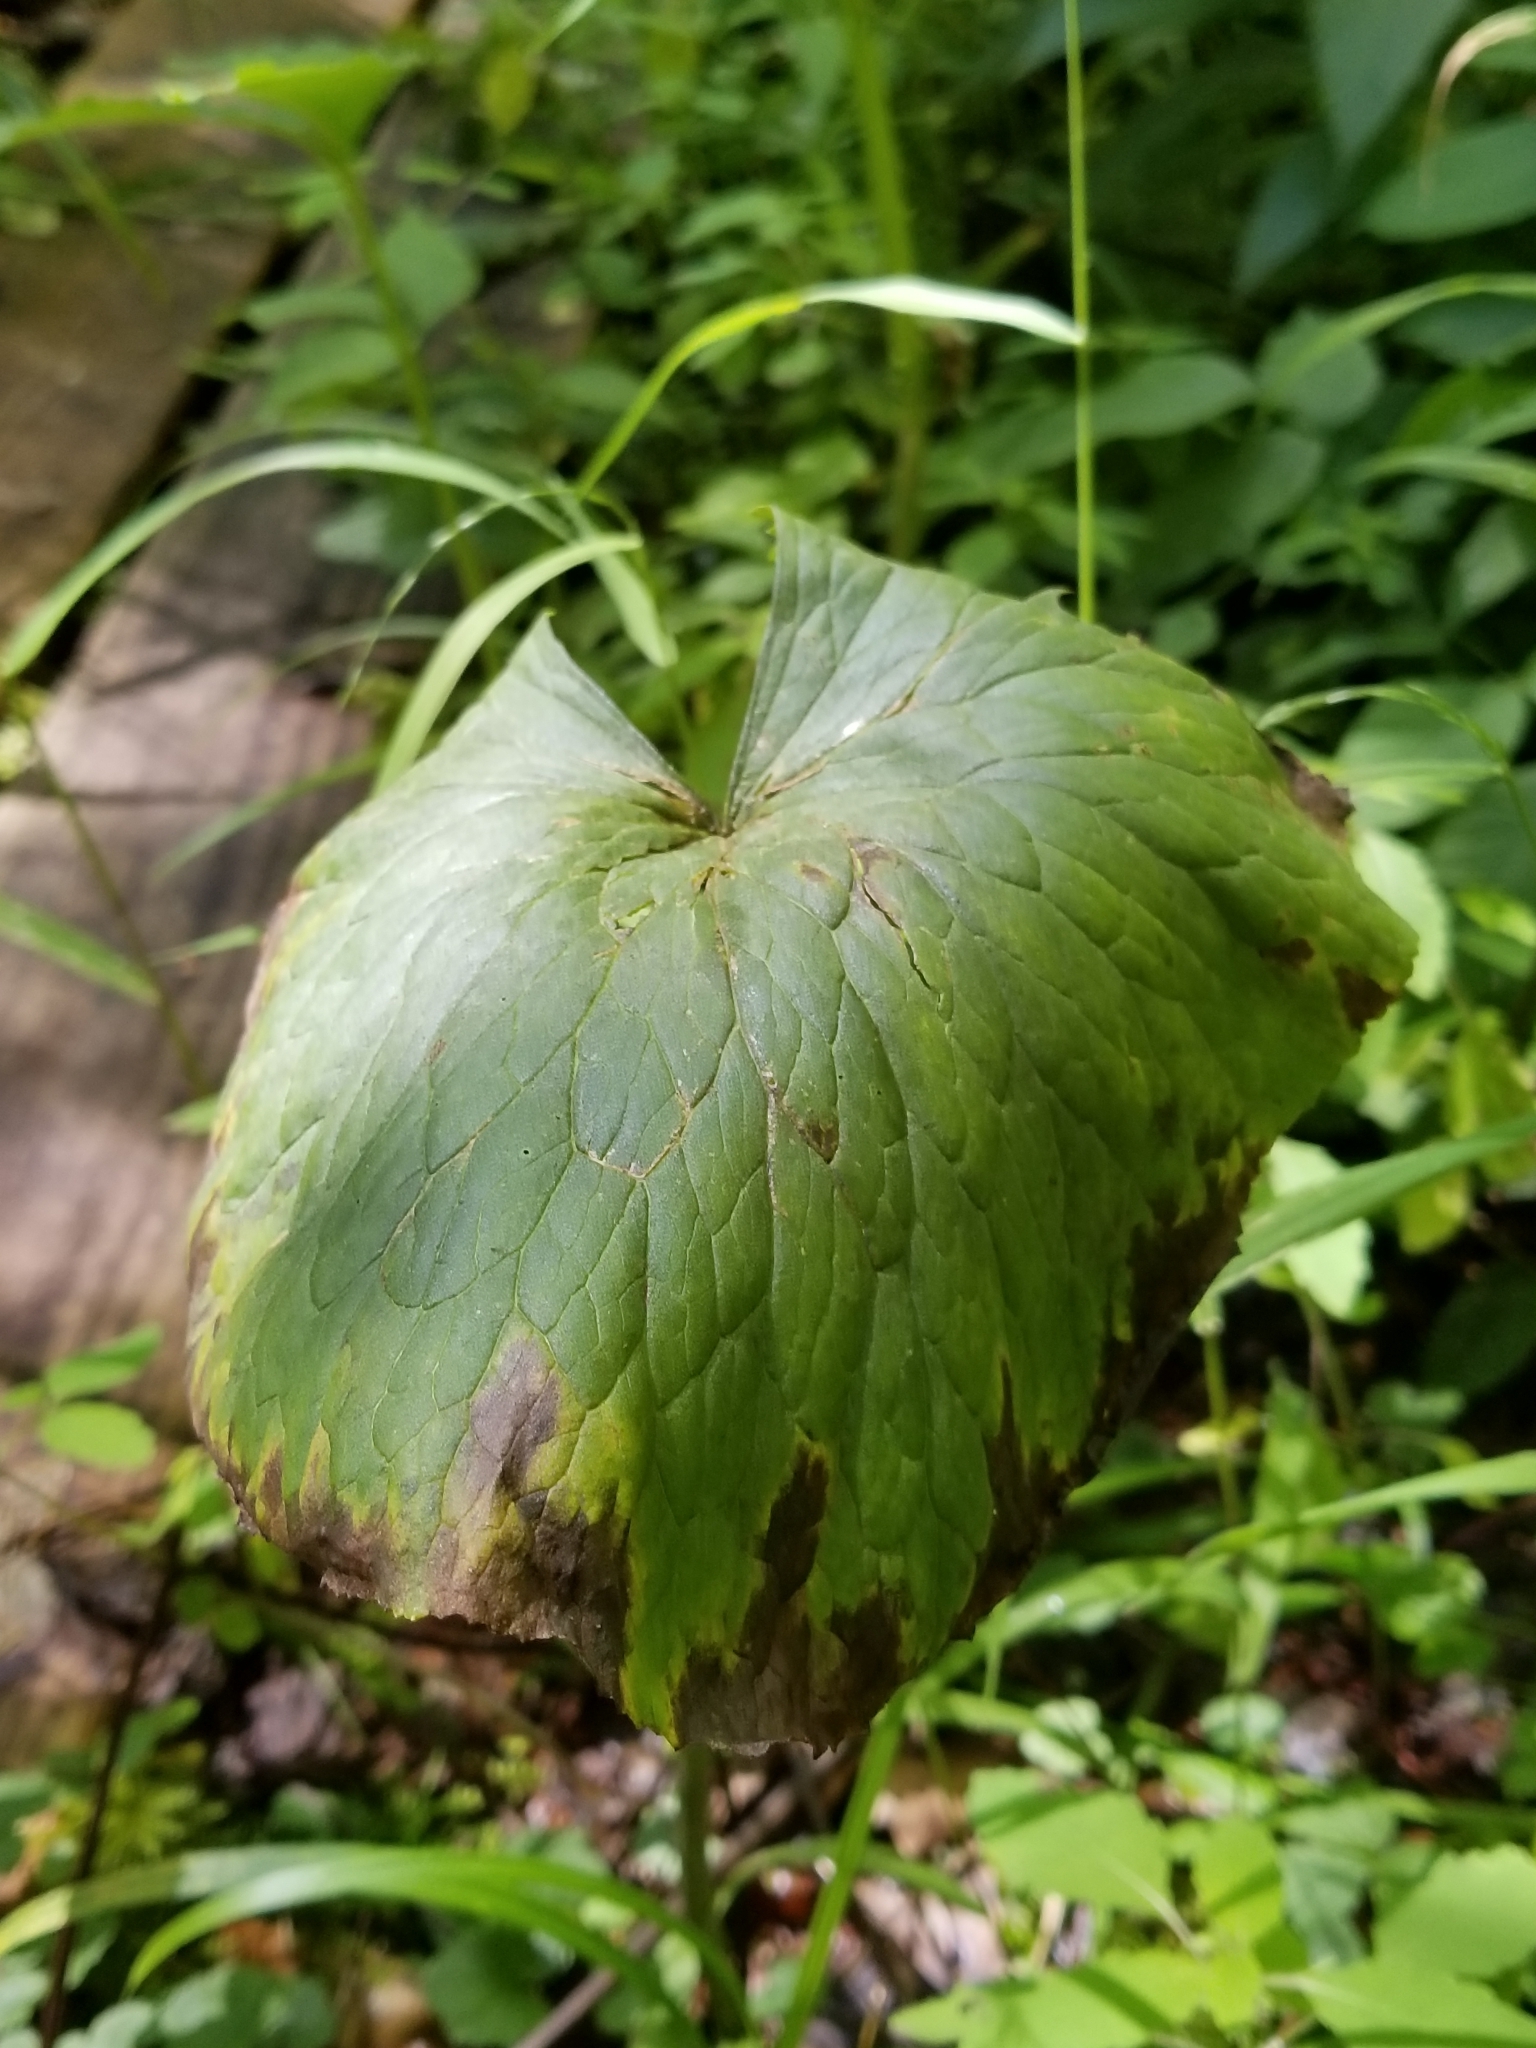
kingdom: Plantae
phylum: Tracheophyta
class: Magnoliopsida
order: Ranunculales
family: Ranunculaceae
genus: Caltha
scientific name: Caltha palustris
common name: Marsh marigold
